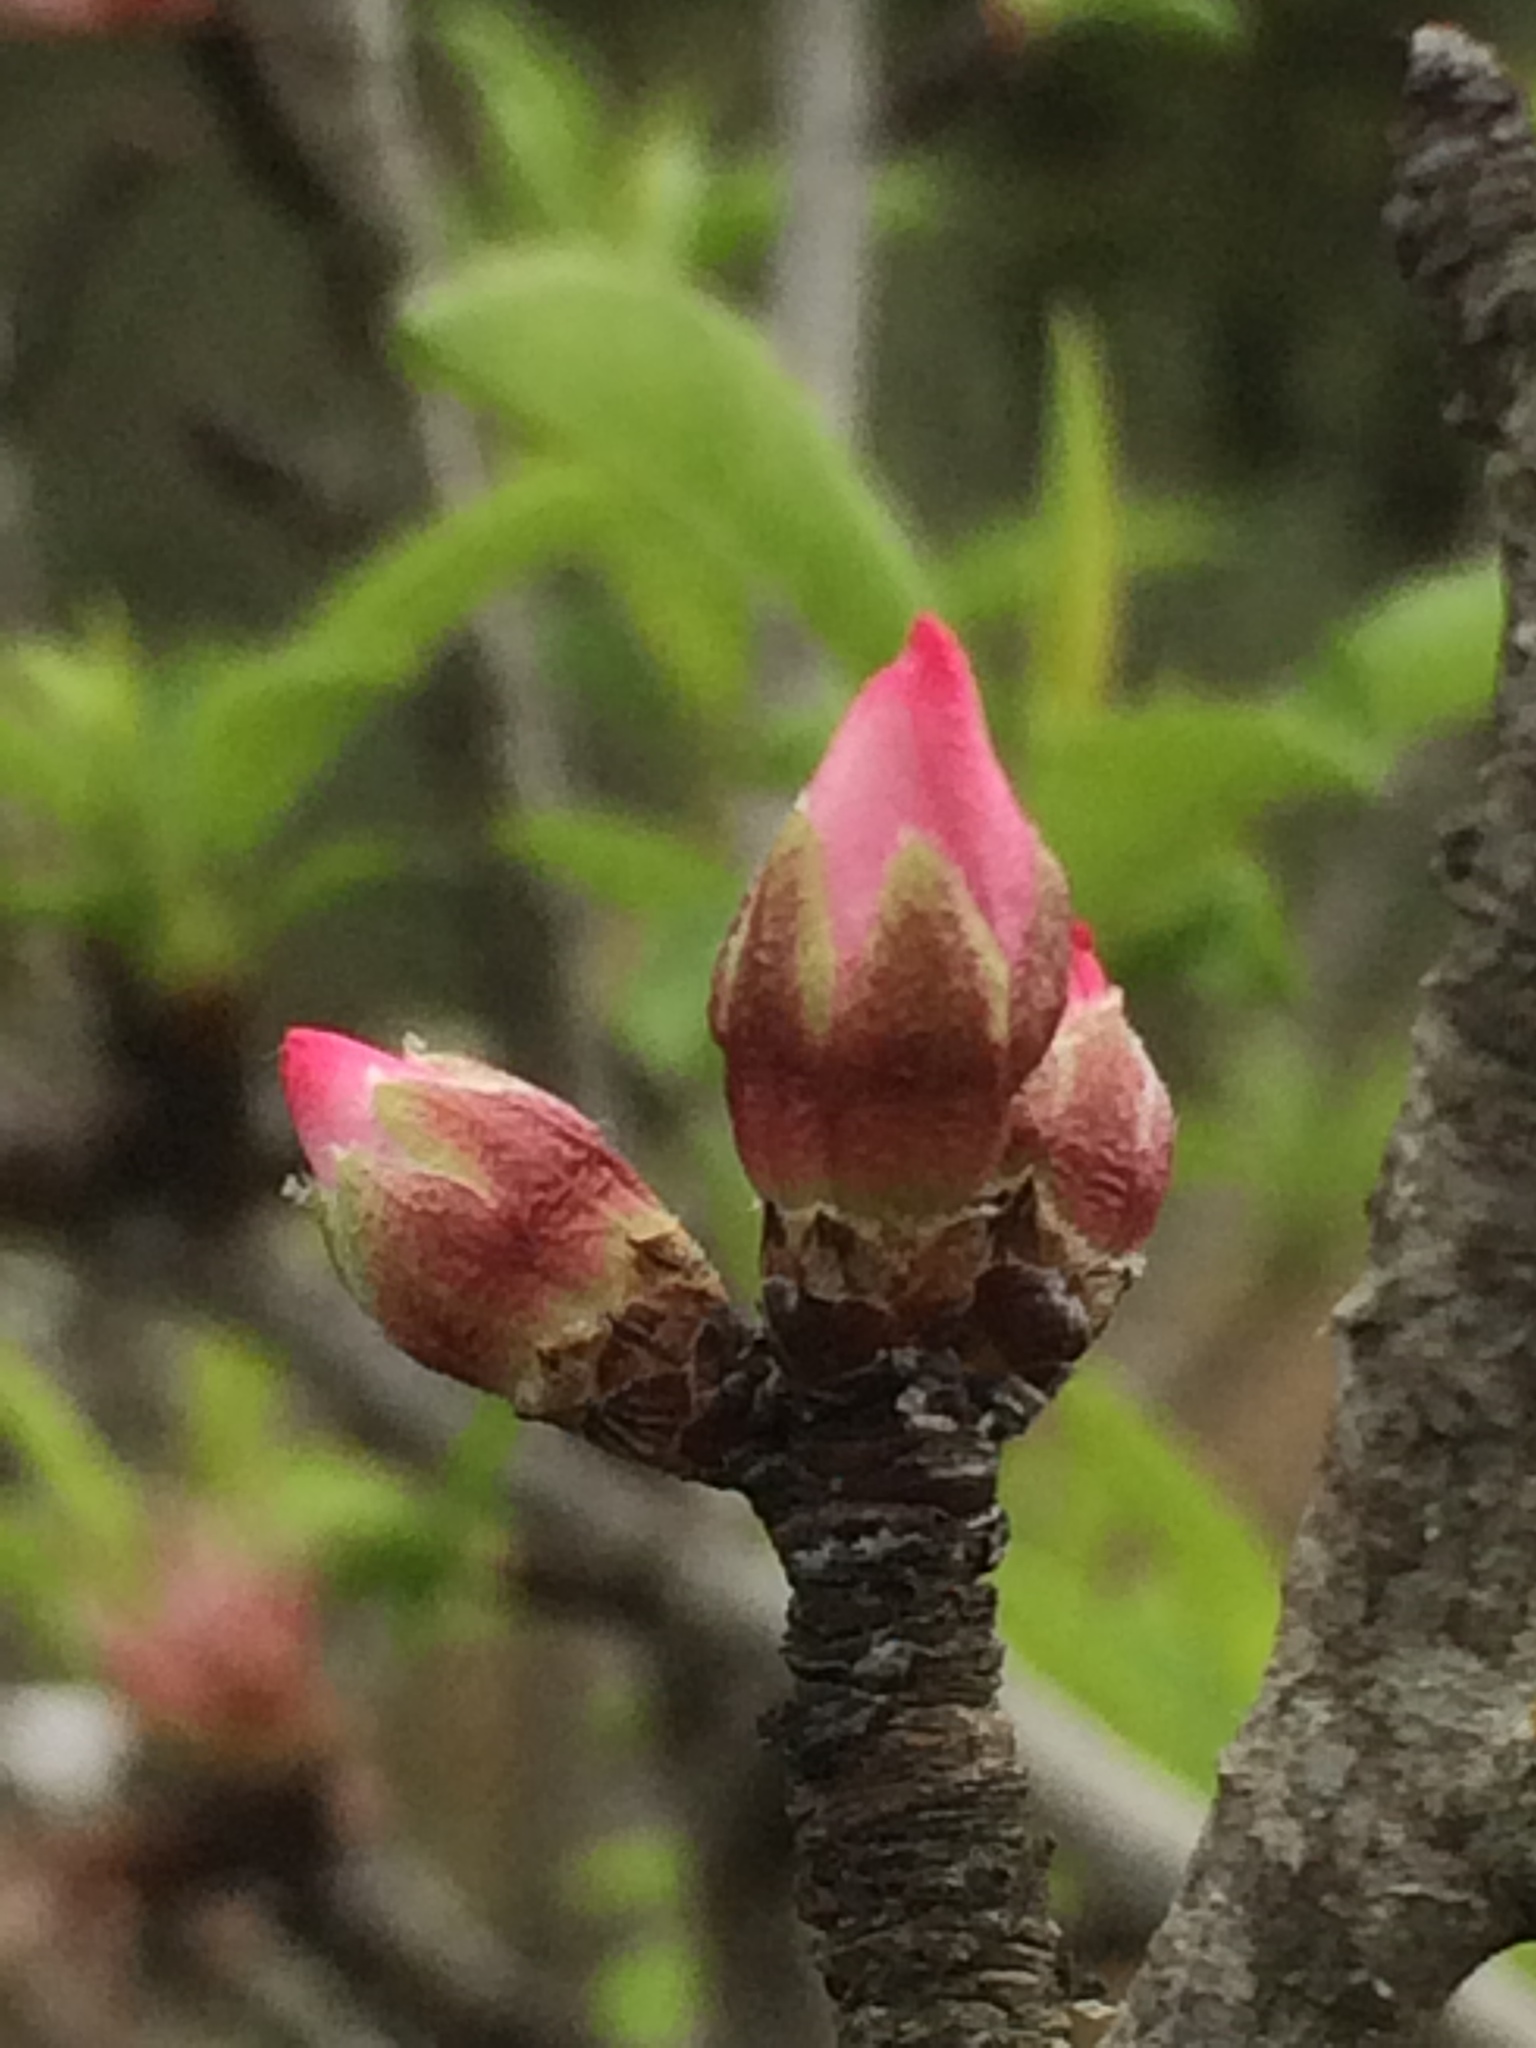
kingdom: Plantae
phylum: Tracheophyta
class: Magnoliopsida
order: Rosales
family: Rosaceae
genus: Prunus
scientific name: Prunus amygdalus
